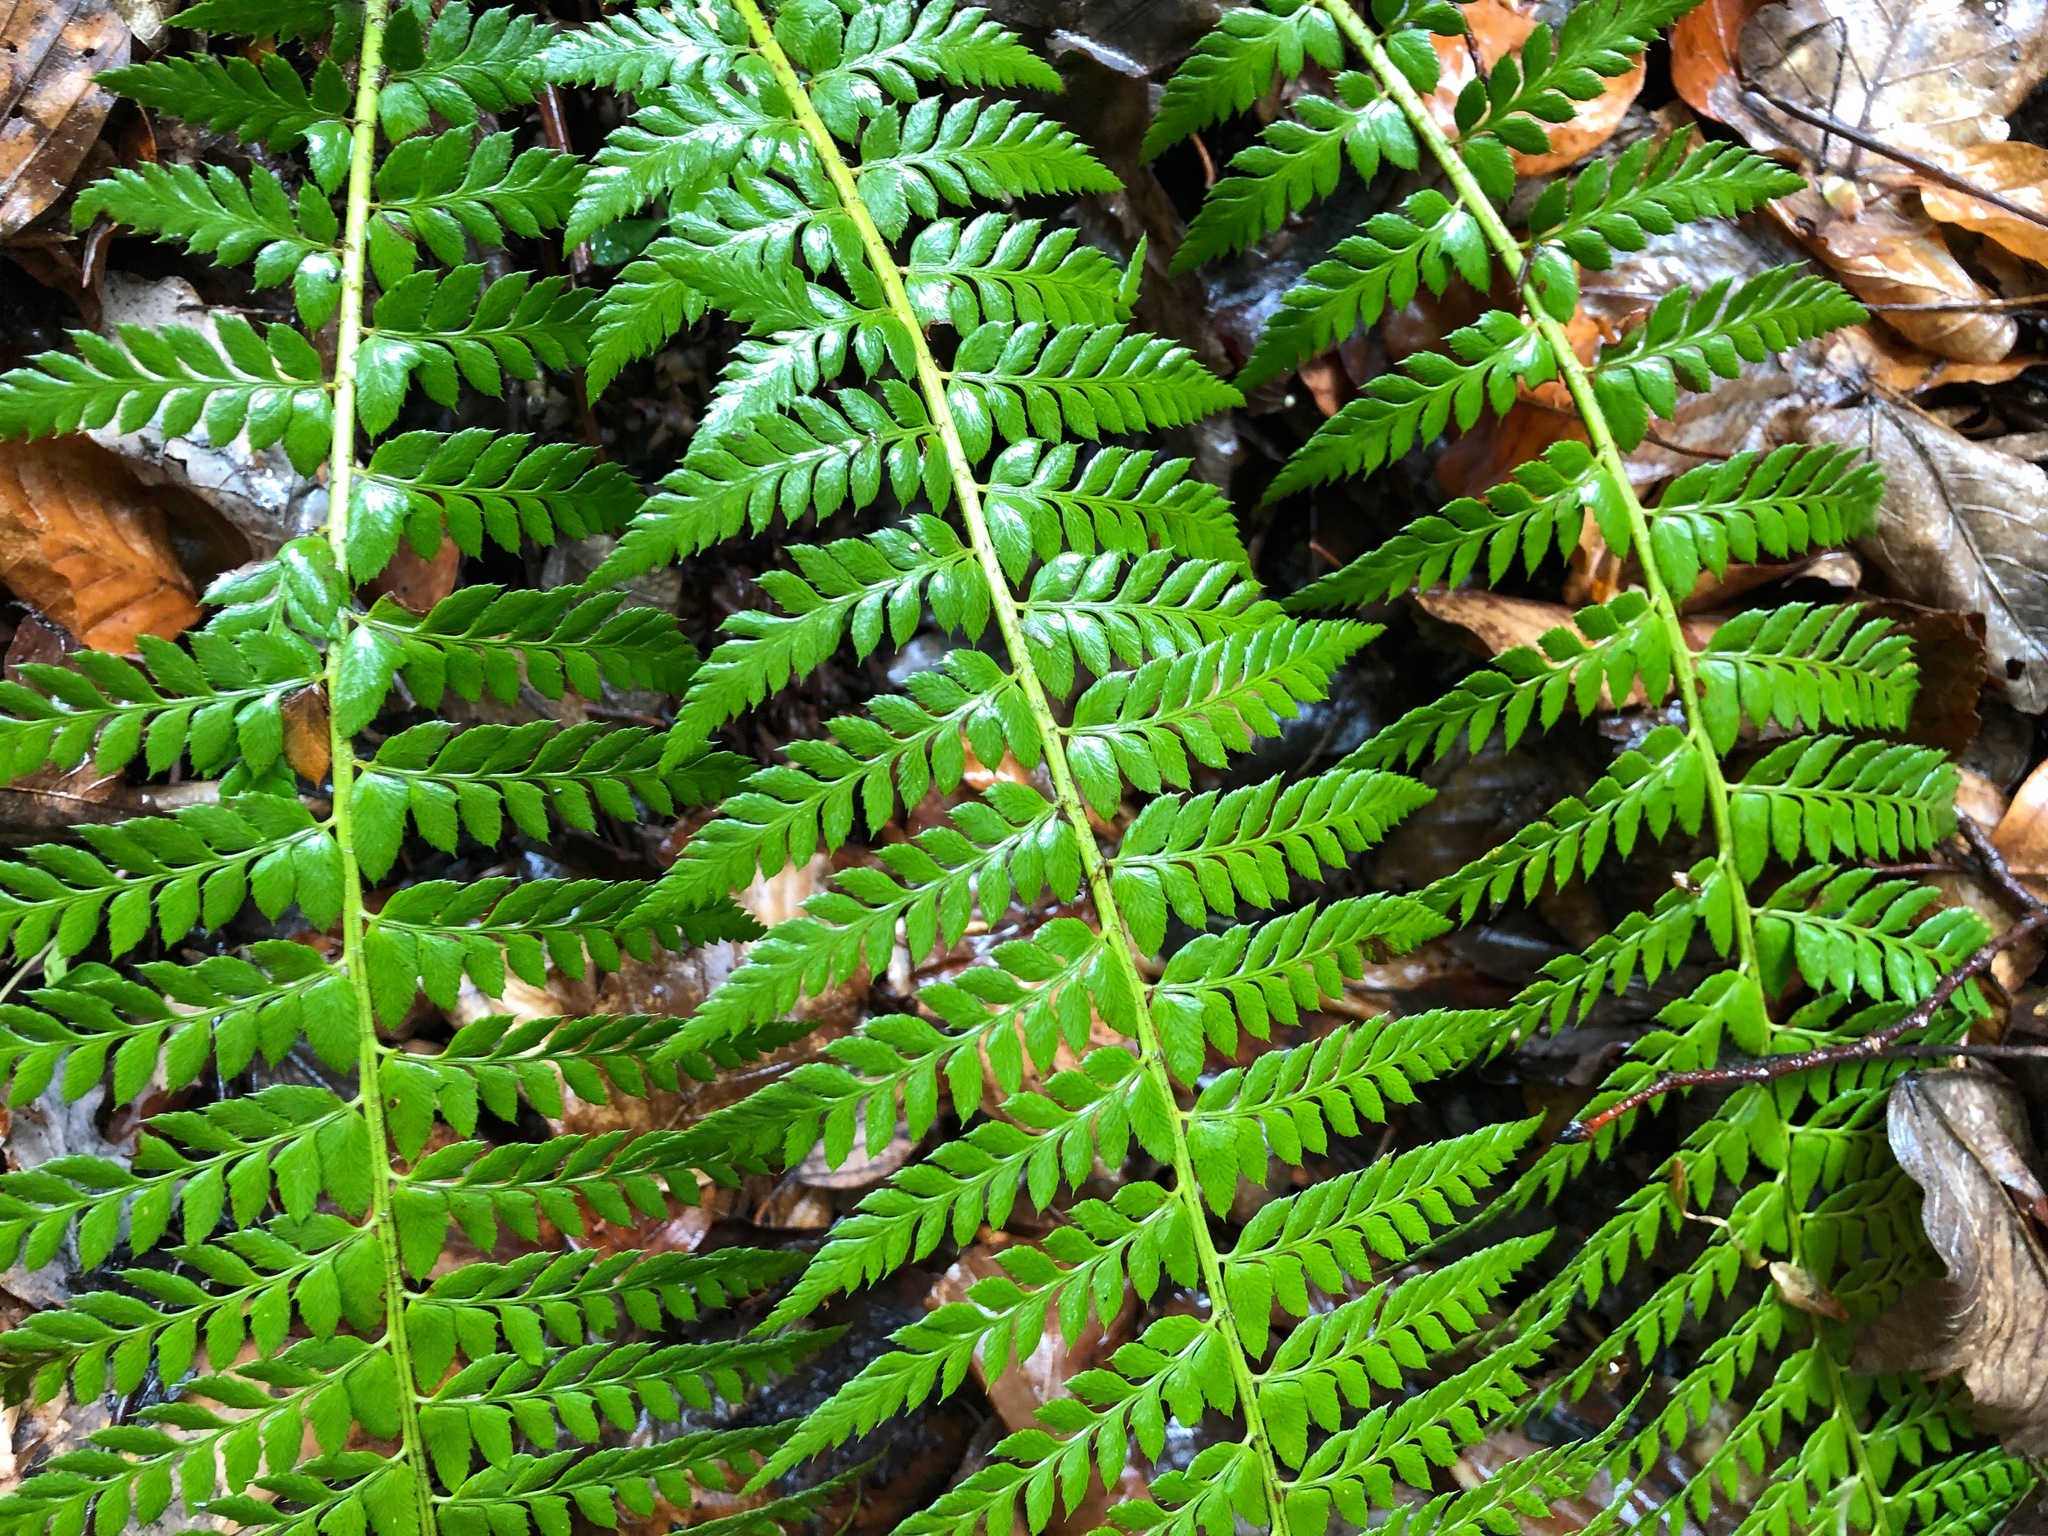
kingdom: Plantae
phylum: Tracheophyta
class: Polypodiopsida
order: Polypodiales
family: Dryopteridaceae
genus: Polystichum
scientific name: Polystichum aculeatum
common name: Hard shield-fern
